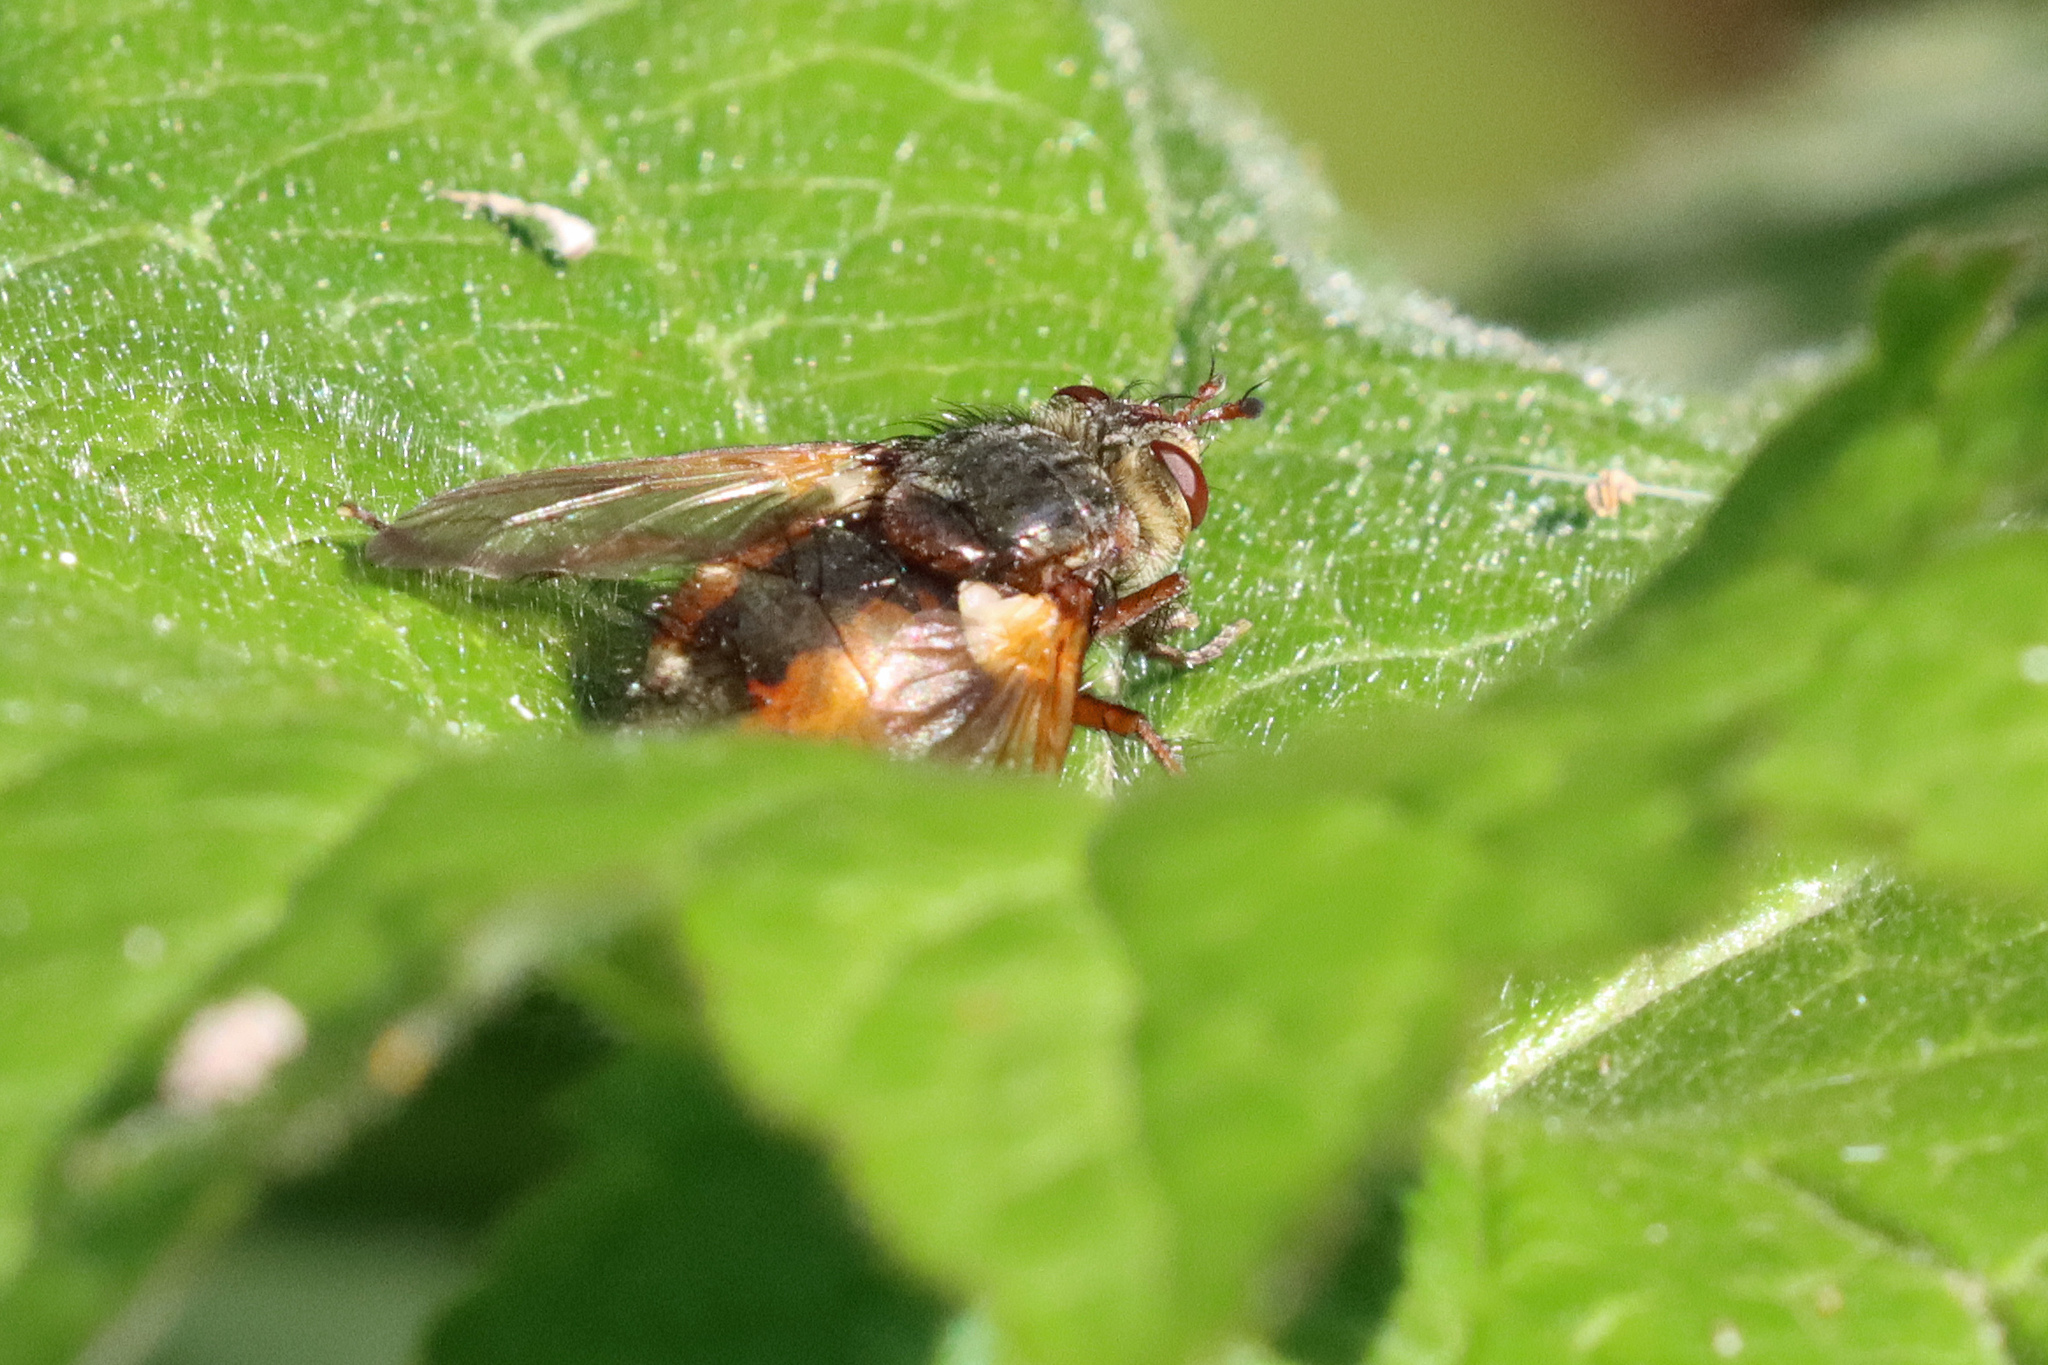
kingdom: Animalia
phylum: Arthropoda
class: Insecta
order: Diptera
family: Tachinidae
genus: Tachina
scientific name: Tachina fera
